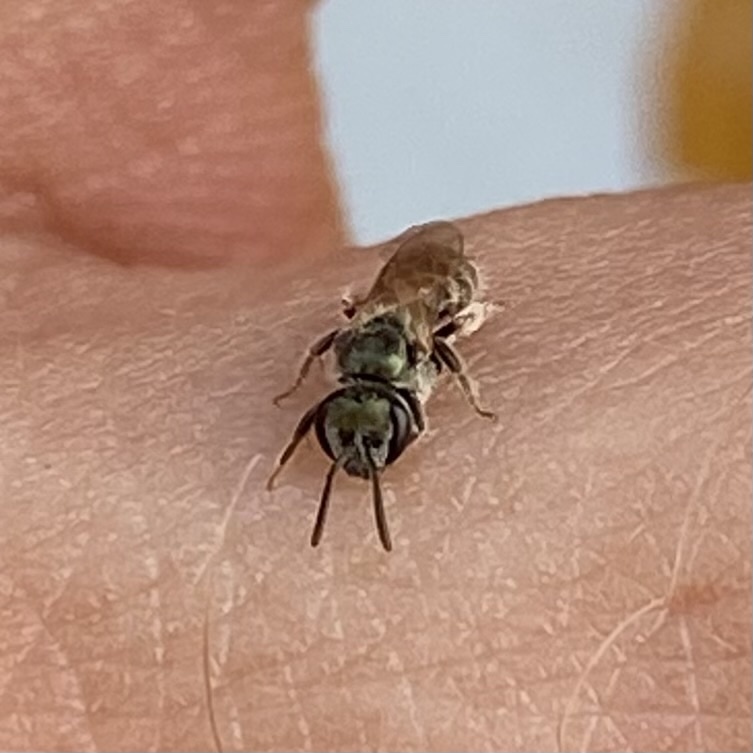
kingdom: Animalia
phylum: Arthropoda
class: Insecta
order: Hymenoptera
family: Halictidae
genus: Dialictus
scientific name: Dialictus
